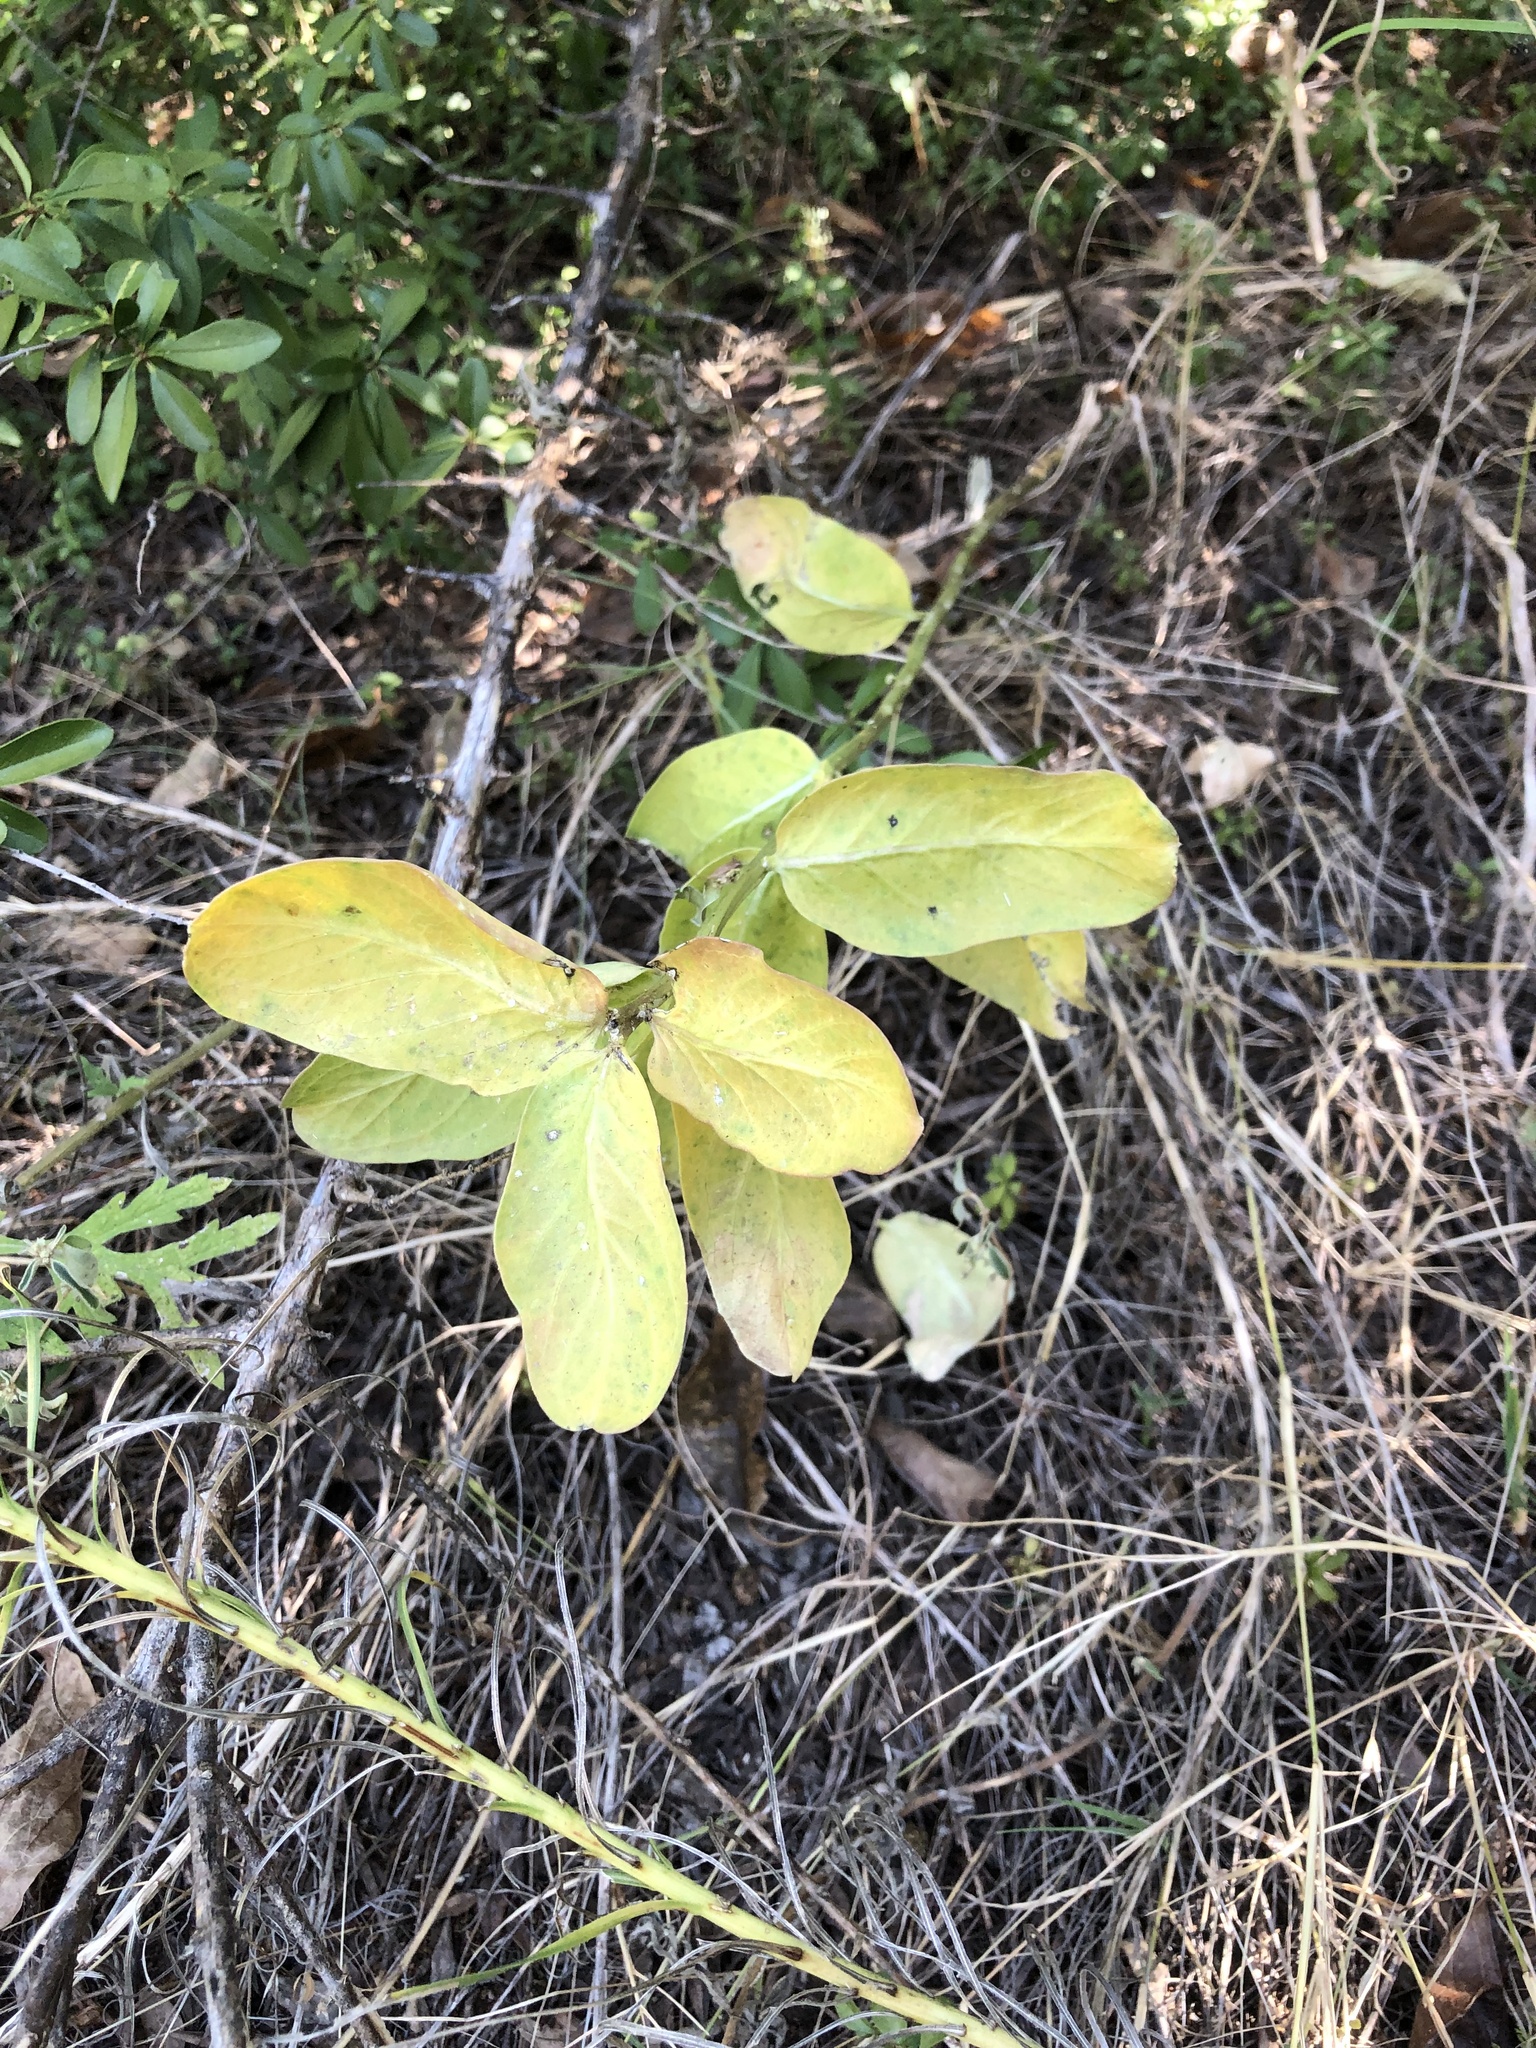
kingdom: Plantae
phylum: Tracheophyta
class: Magnoliopsida
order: Gentianales
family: Apocynaceae
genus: Asclepias
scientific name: Asclepias viridis
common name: Antelope-horns
